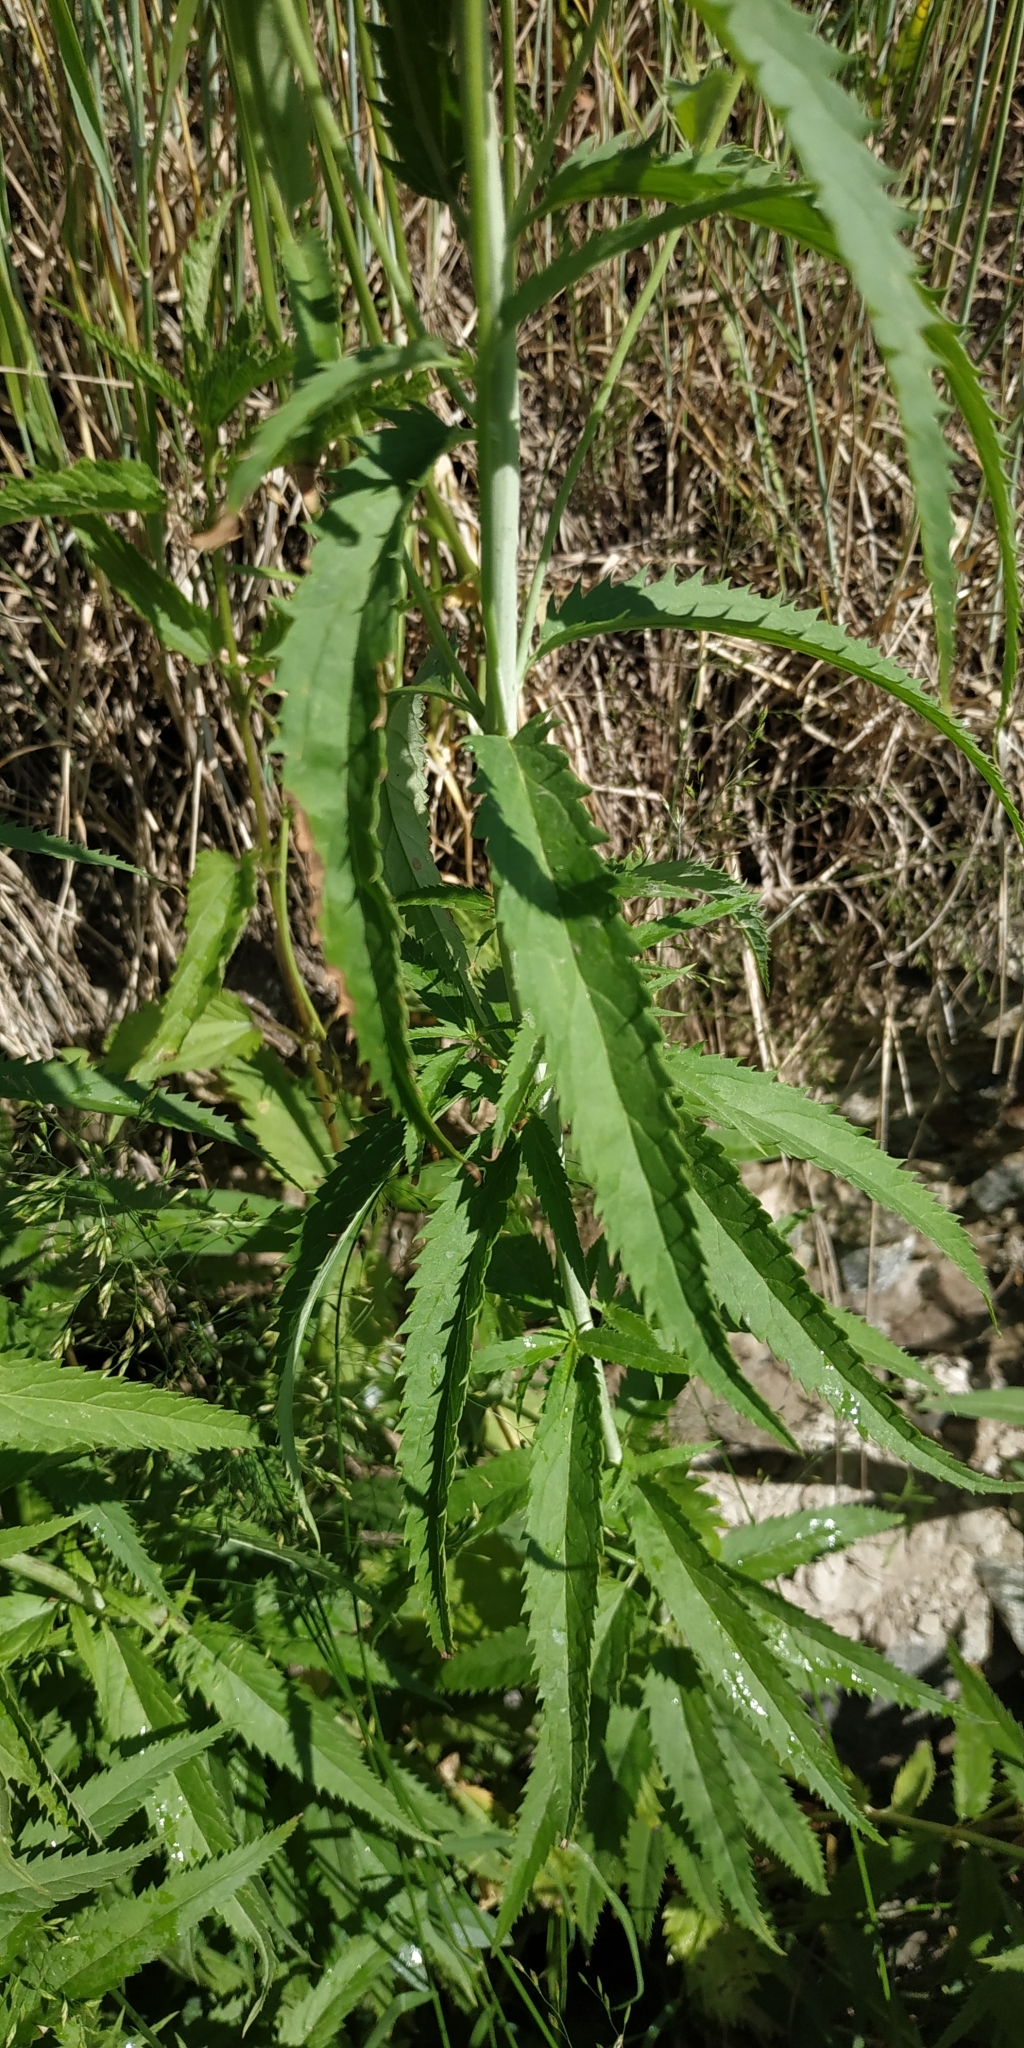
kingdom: Plantae
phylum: Tracheophyta
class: Magnoliopsida
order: Lamiales
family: Plantaginaceae
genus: Veronica
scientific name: Veronica longifolia
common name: Garden speedwell
